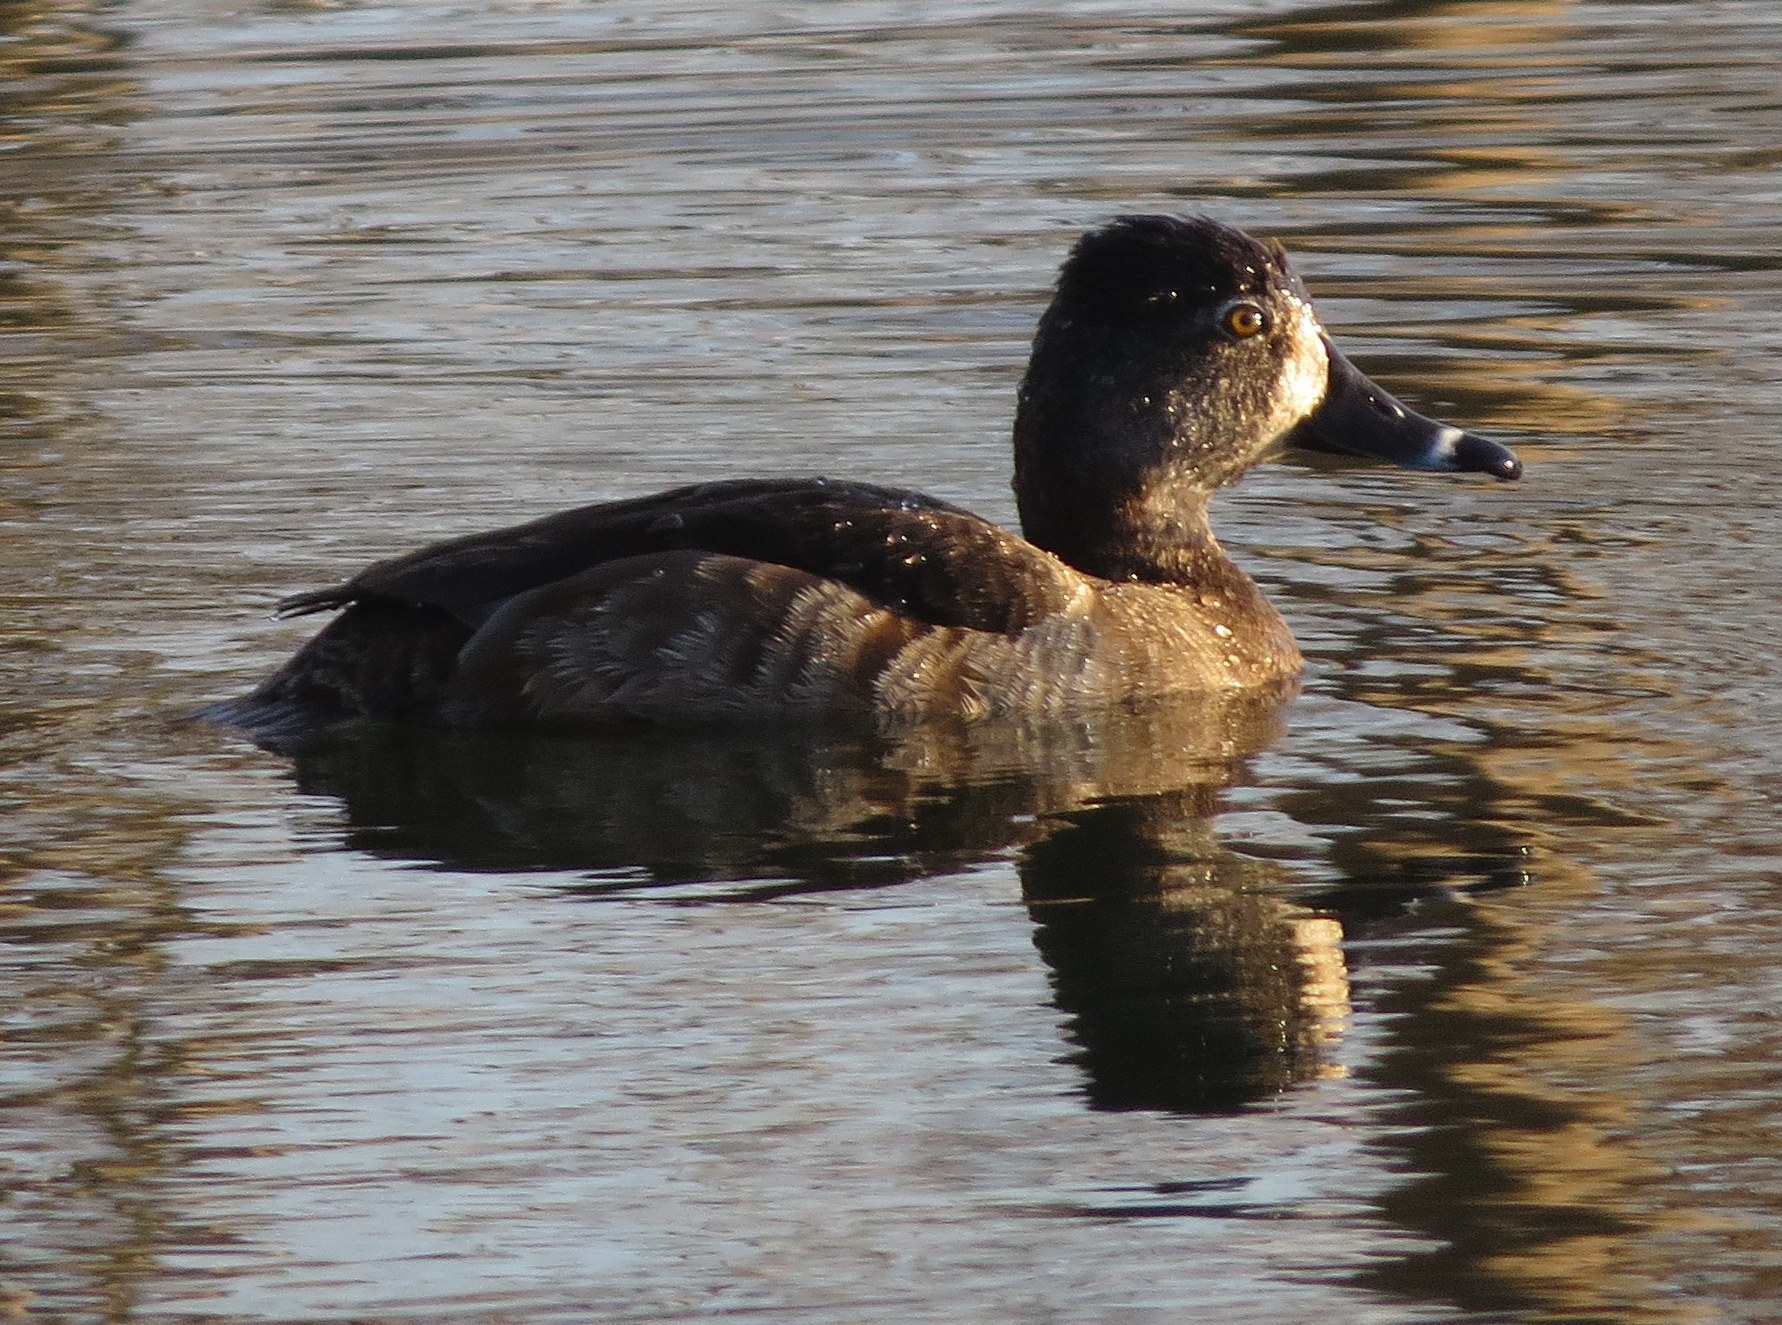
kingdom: Animalia
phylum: Chordata
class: Aves
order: Anseriformes
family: Anatidae
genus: Aythya
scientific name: Aythya collaris
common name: Ring-necked duck
